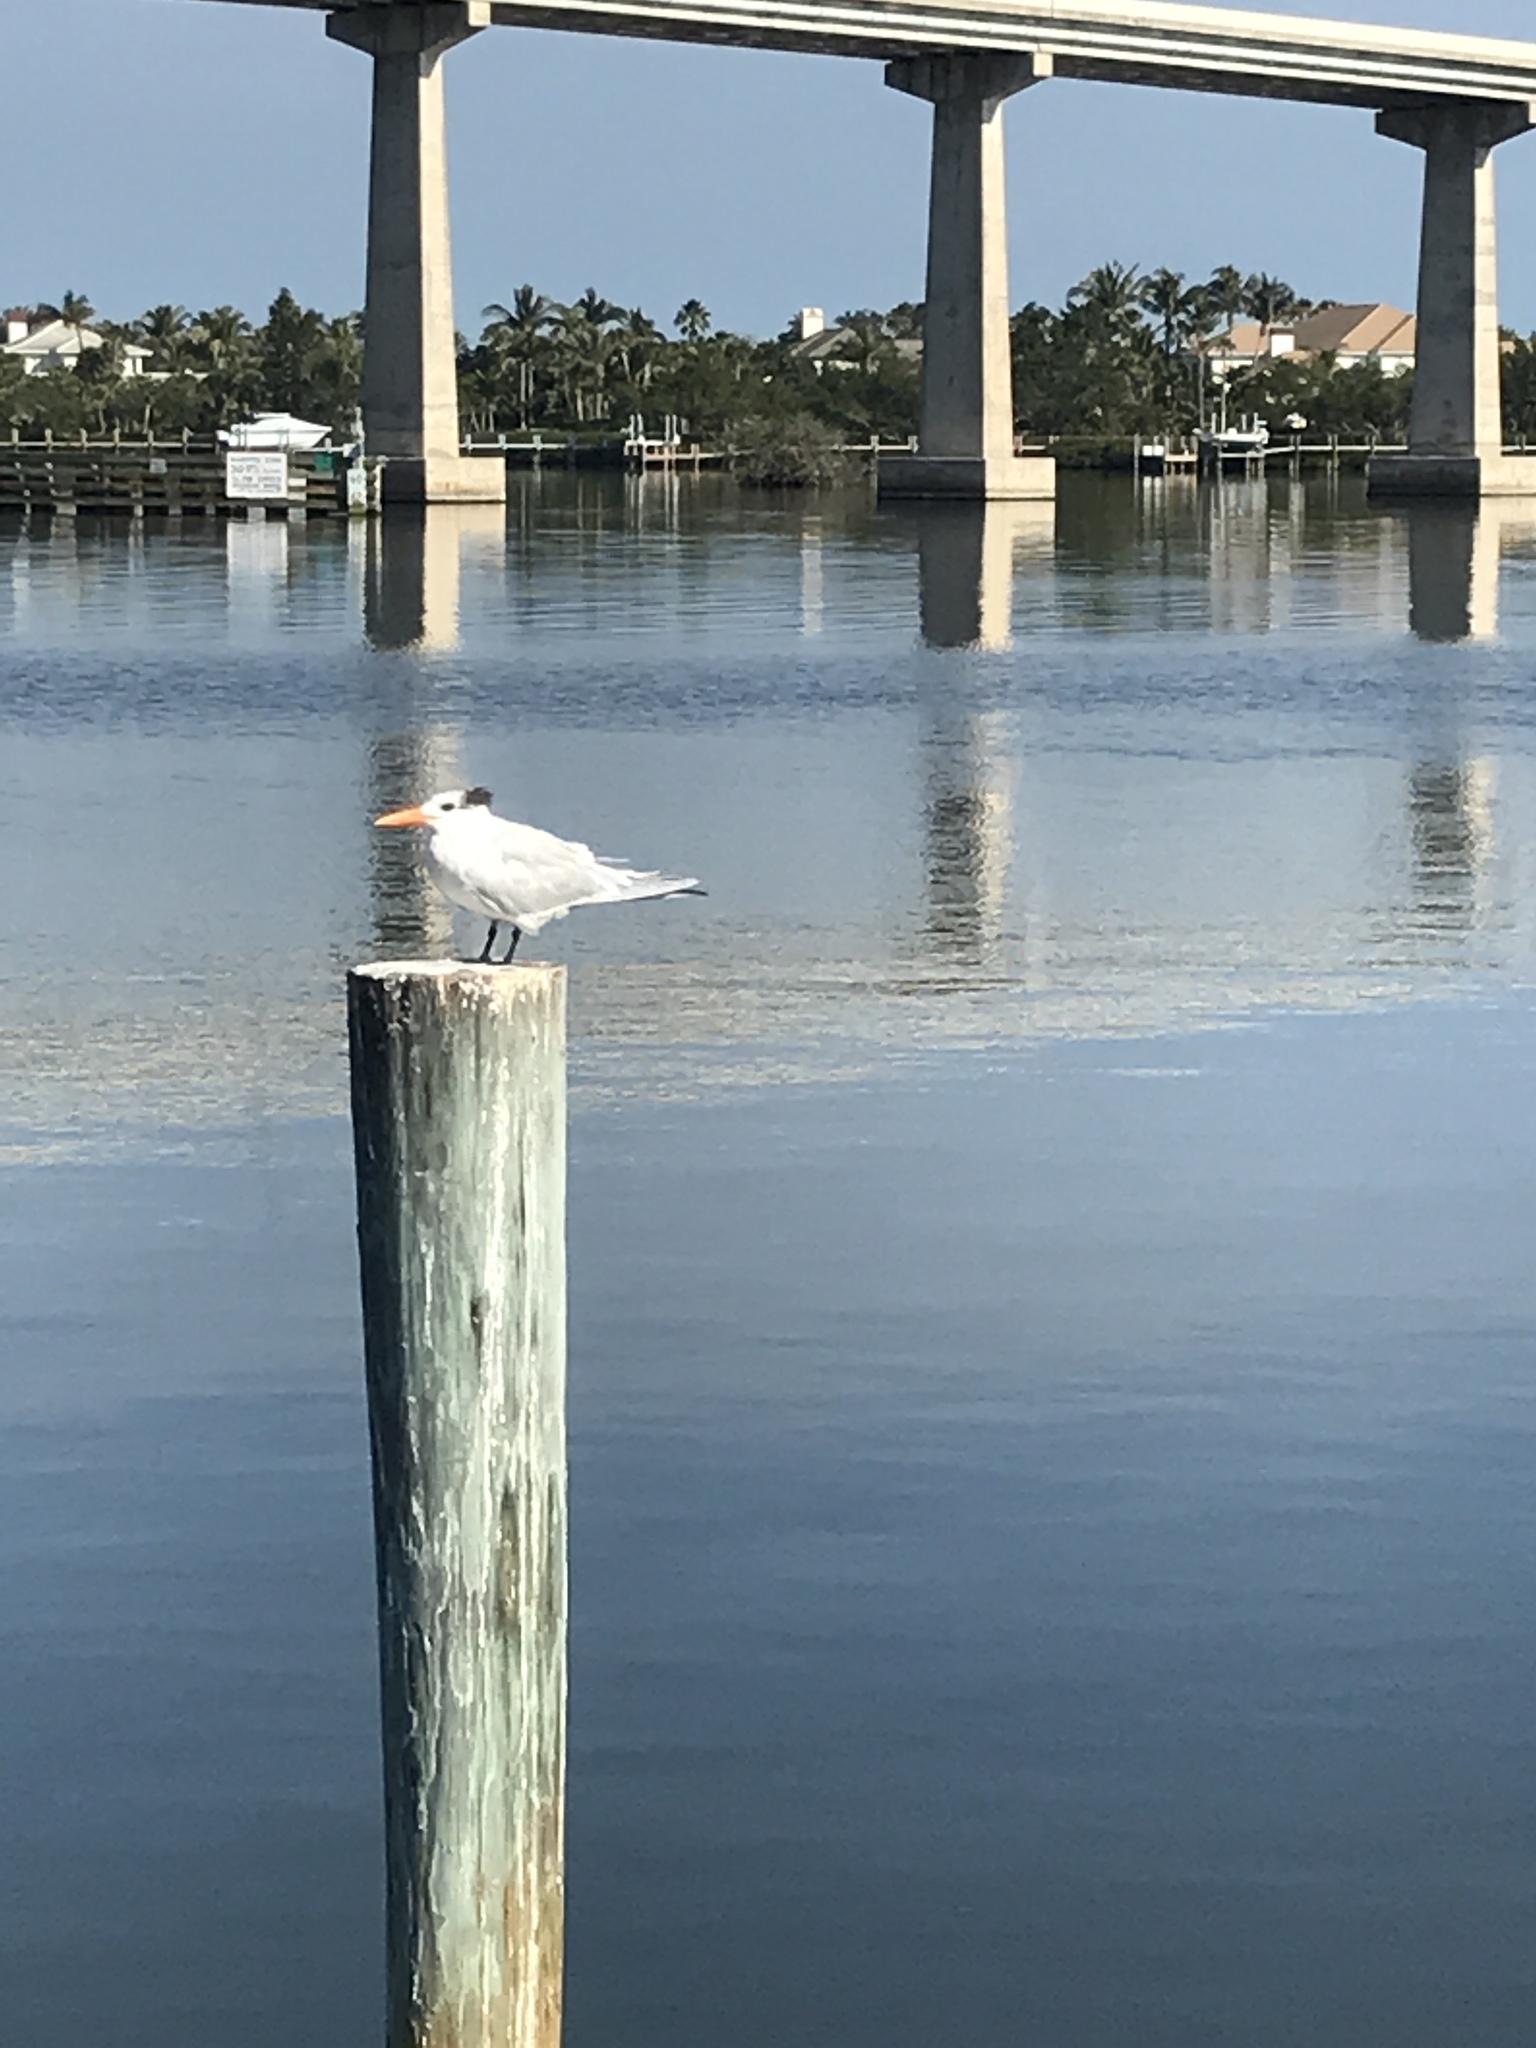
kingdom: Animalia
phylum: Chordata
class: Aves
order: Charadriiformes
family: Laridae
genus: Thalasseus
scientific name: Thalasseus maximus
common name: Royal tern
